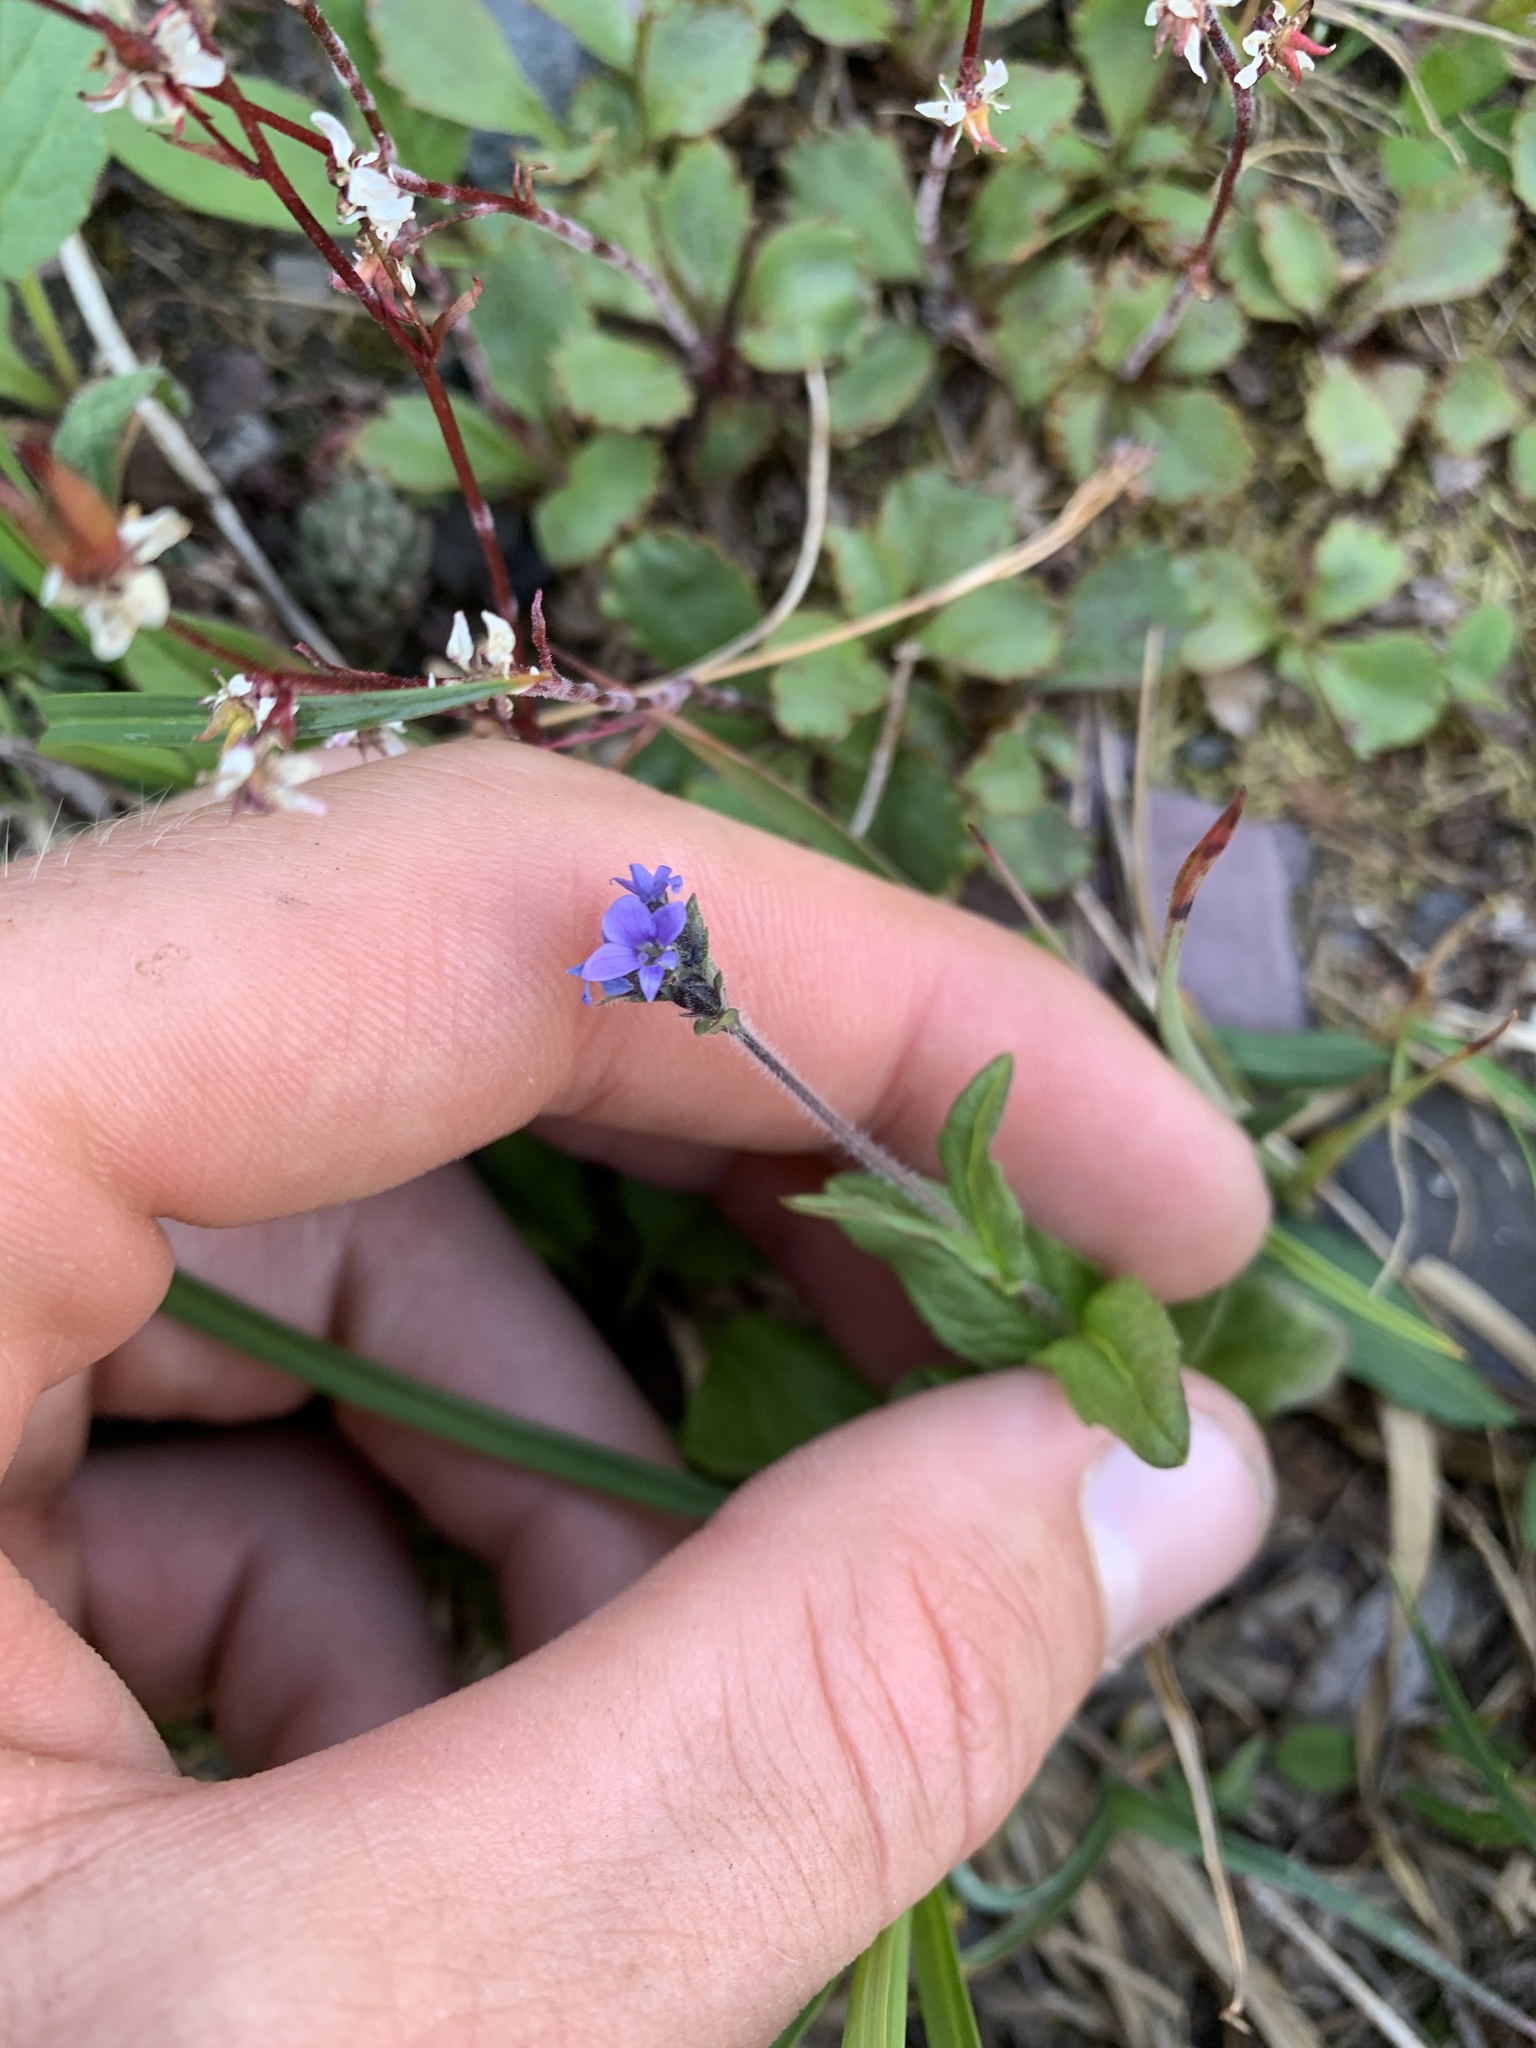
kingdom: Plantae
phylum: Tracheophyta
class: Magnoliopsida
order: Lamiales
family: Plantaginaceae
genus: Veronica
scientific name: Veronica wormskjoldii
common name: American alpine speedwell
